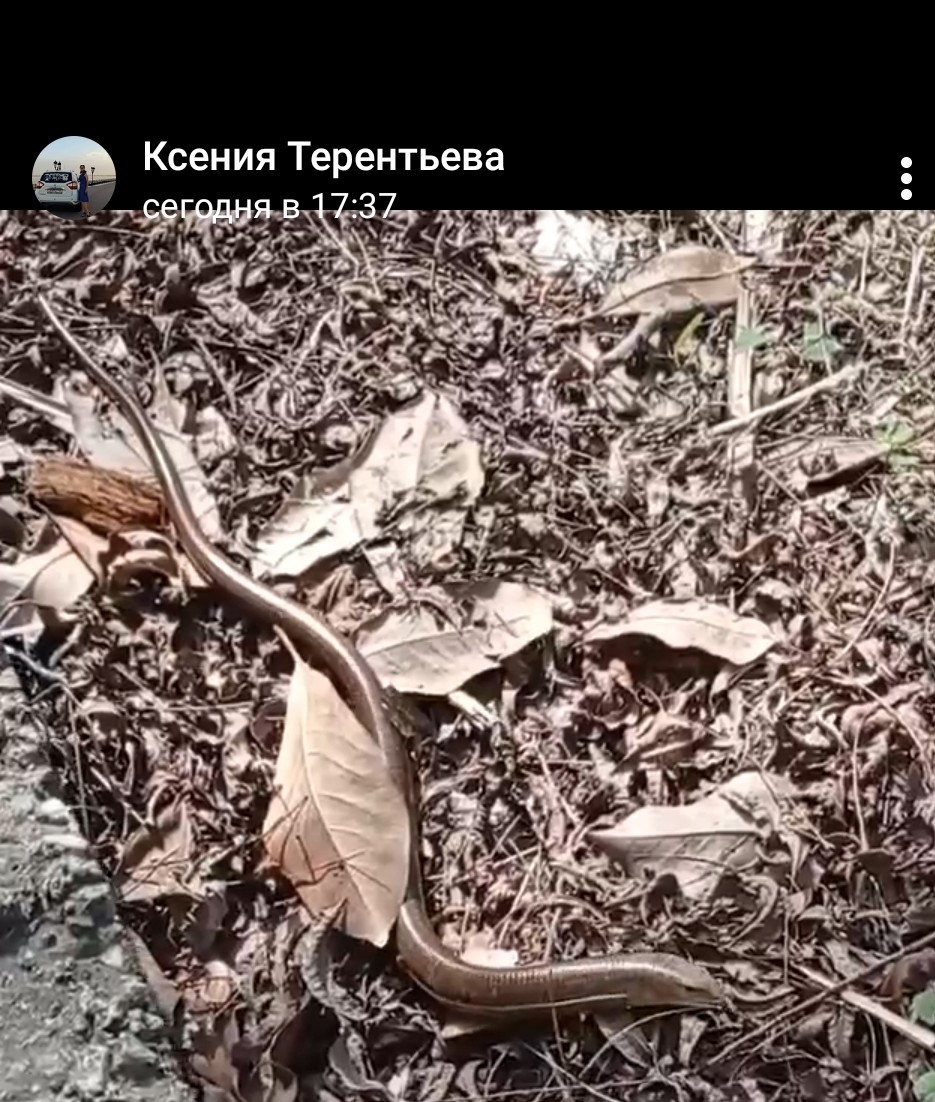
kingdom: Animalia
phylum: Chordata
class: Squamata
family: Anguidae
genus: Pseudopus
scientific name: Pseudopus apodus
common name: European glass lizard
